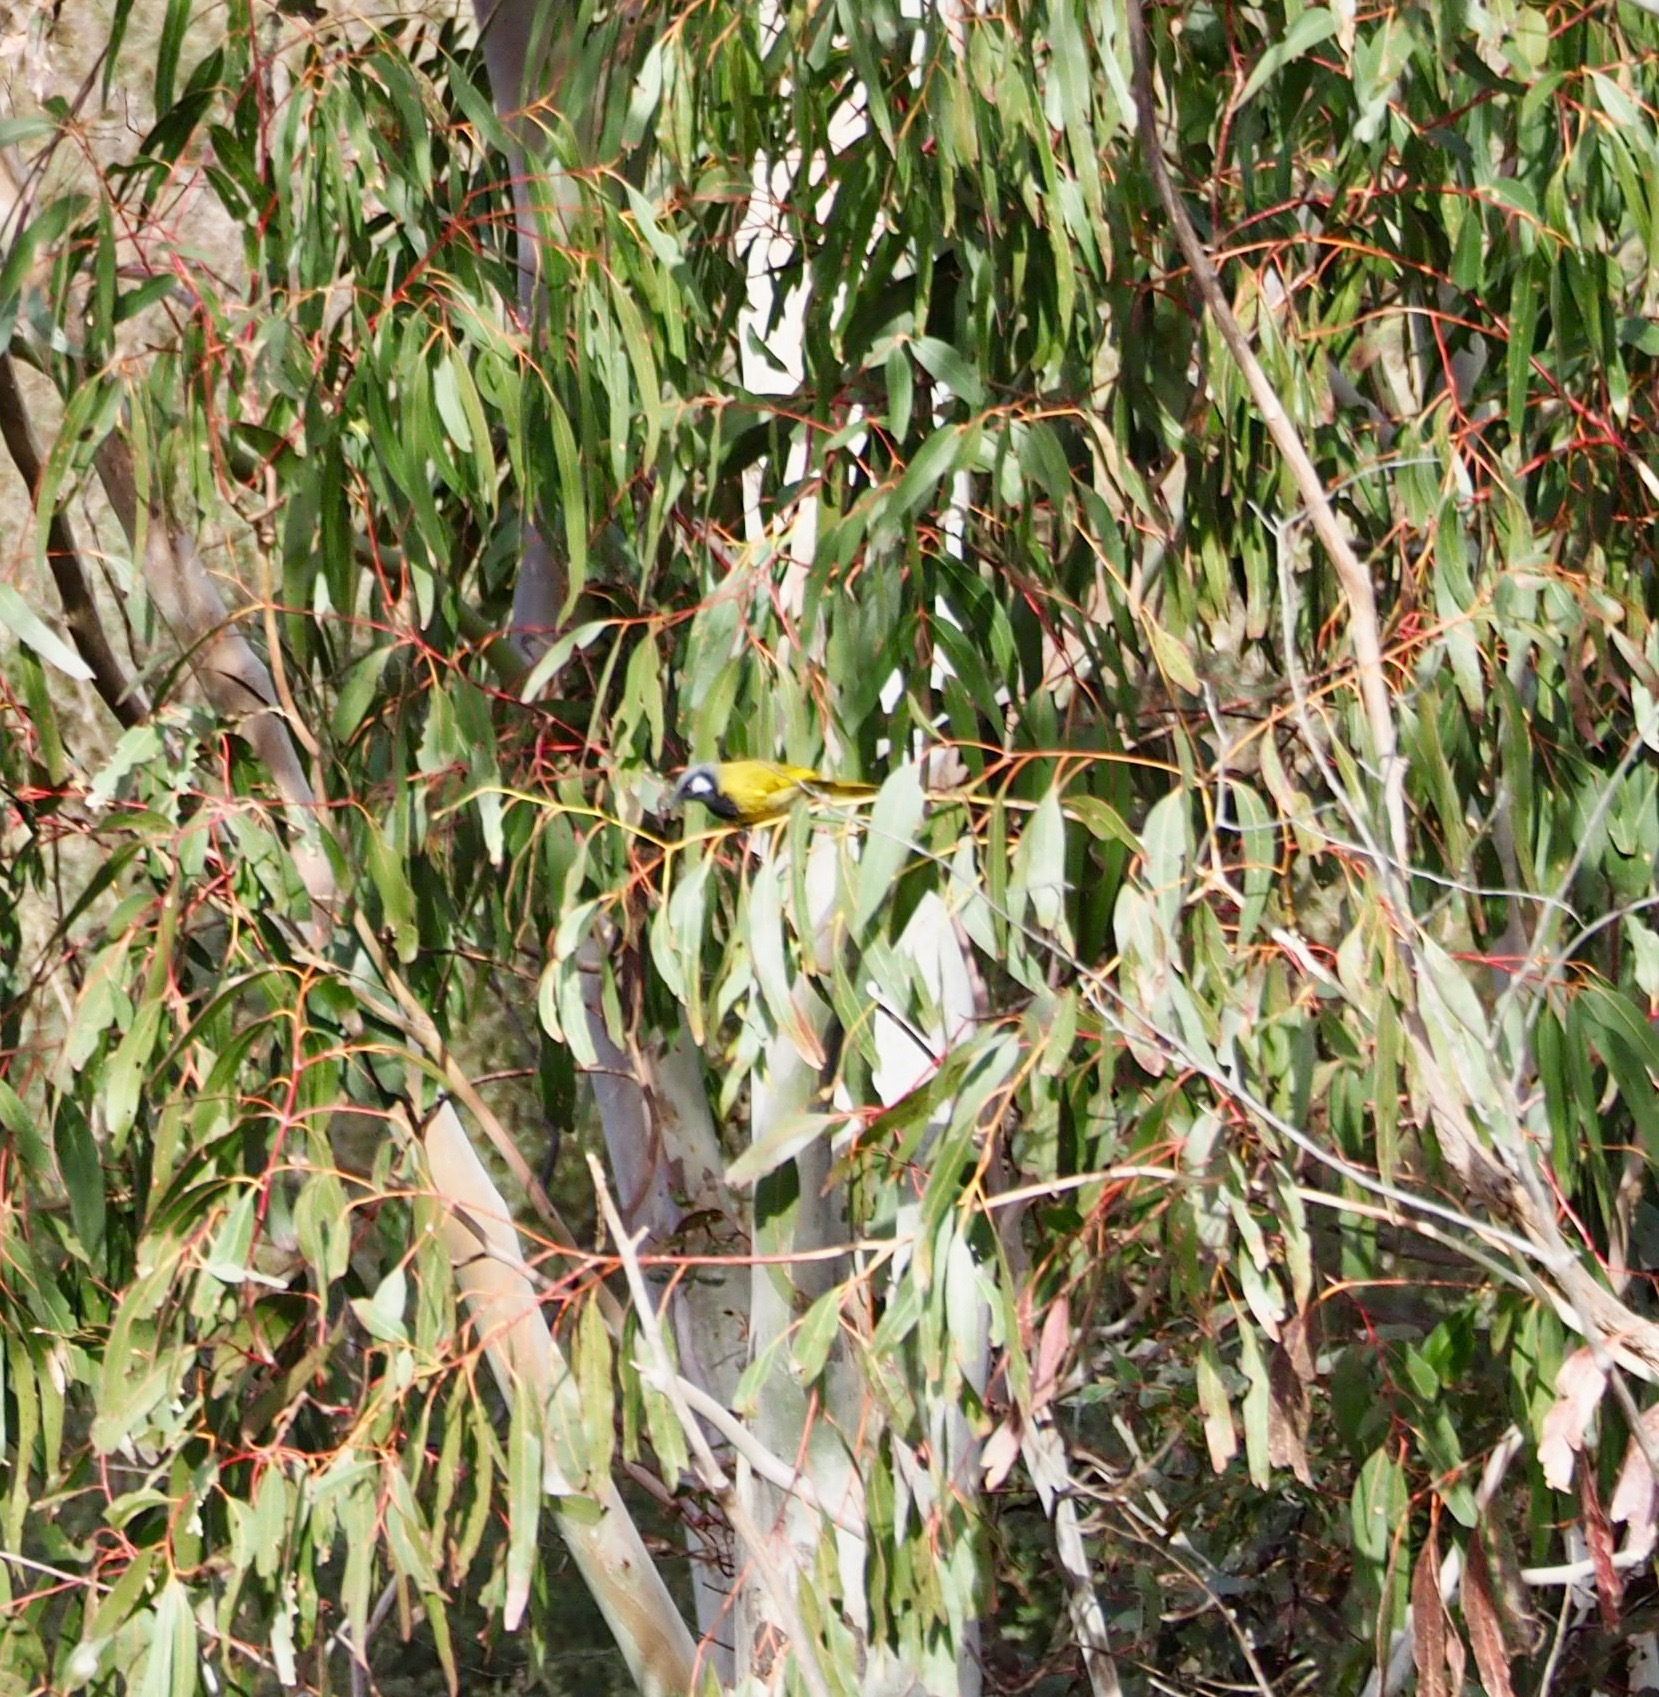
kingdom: Animalia
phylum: Chordata
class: Aves
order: Passeriformes
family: Meliphagidae
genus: Nesoptilotis
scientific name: Nesoptilotis leucotis
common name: White-eared honeyeater
